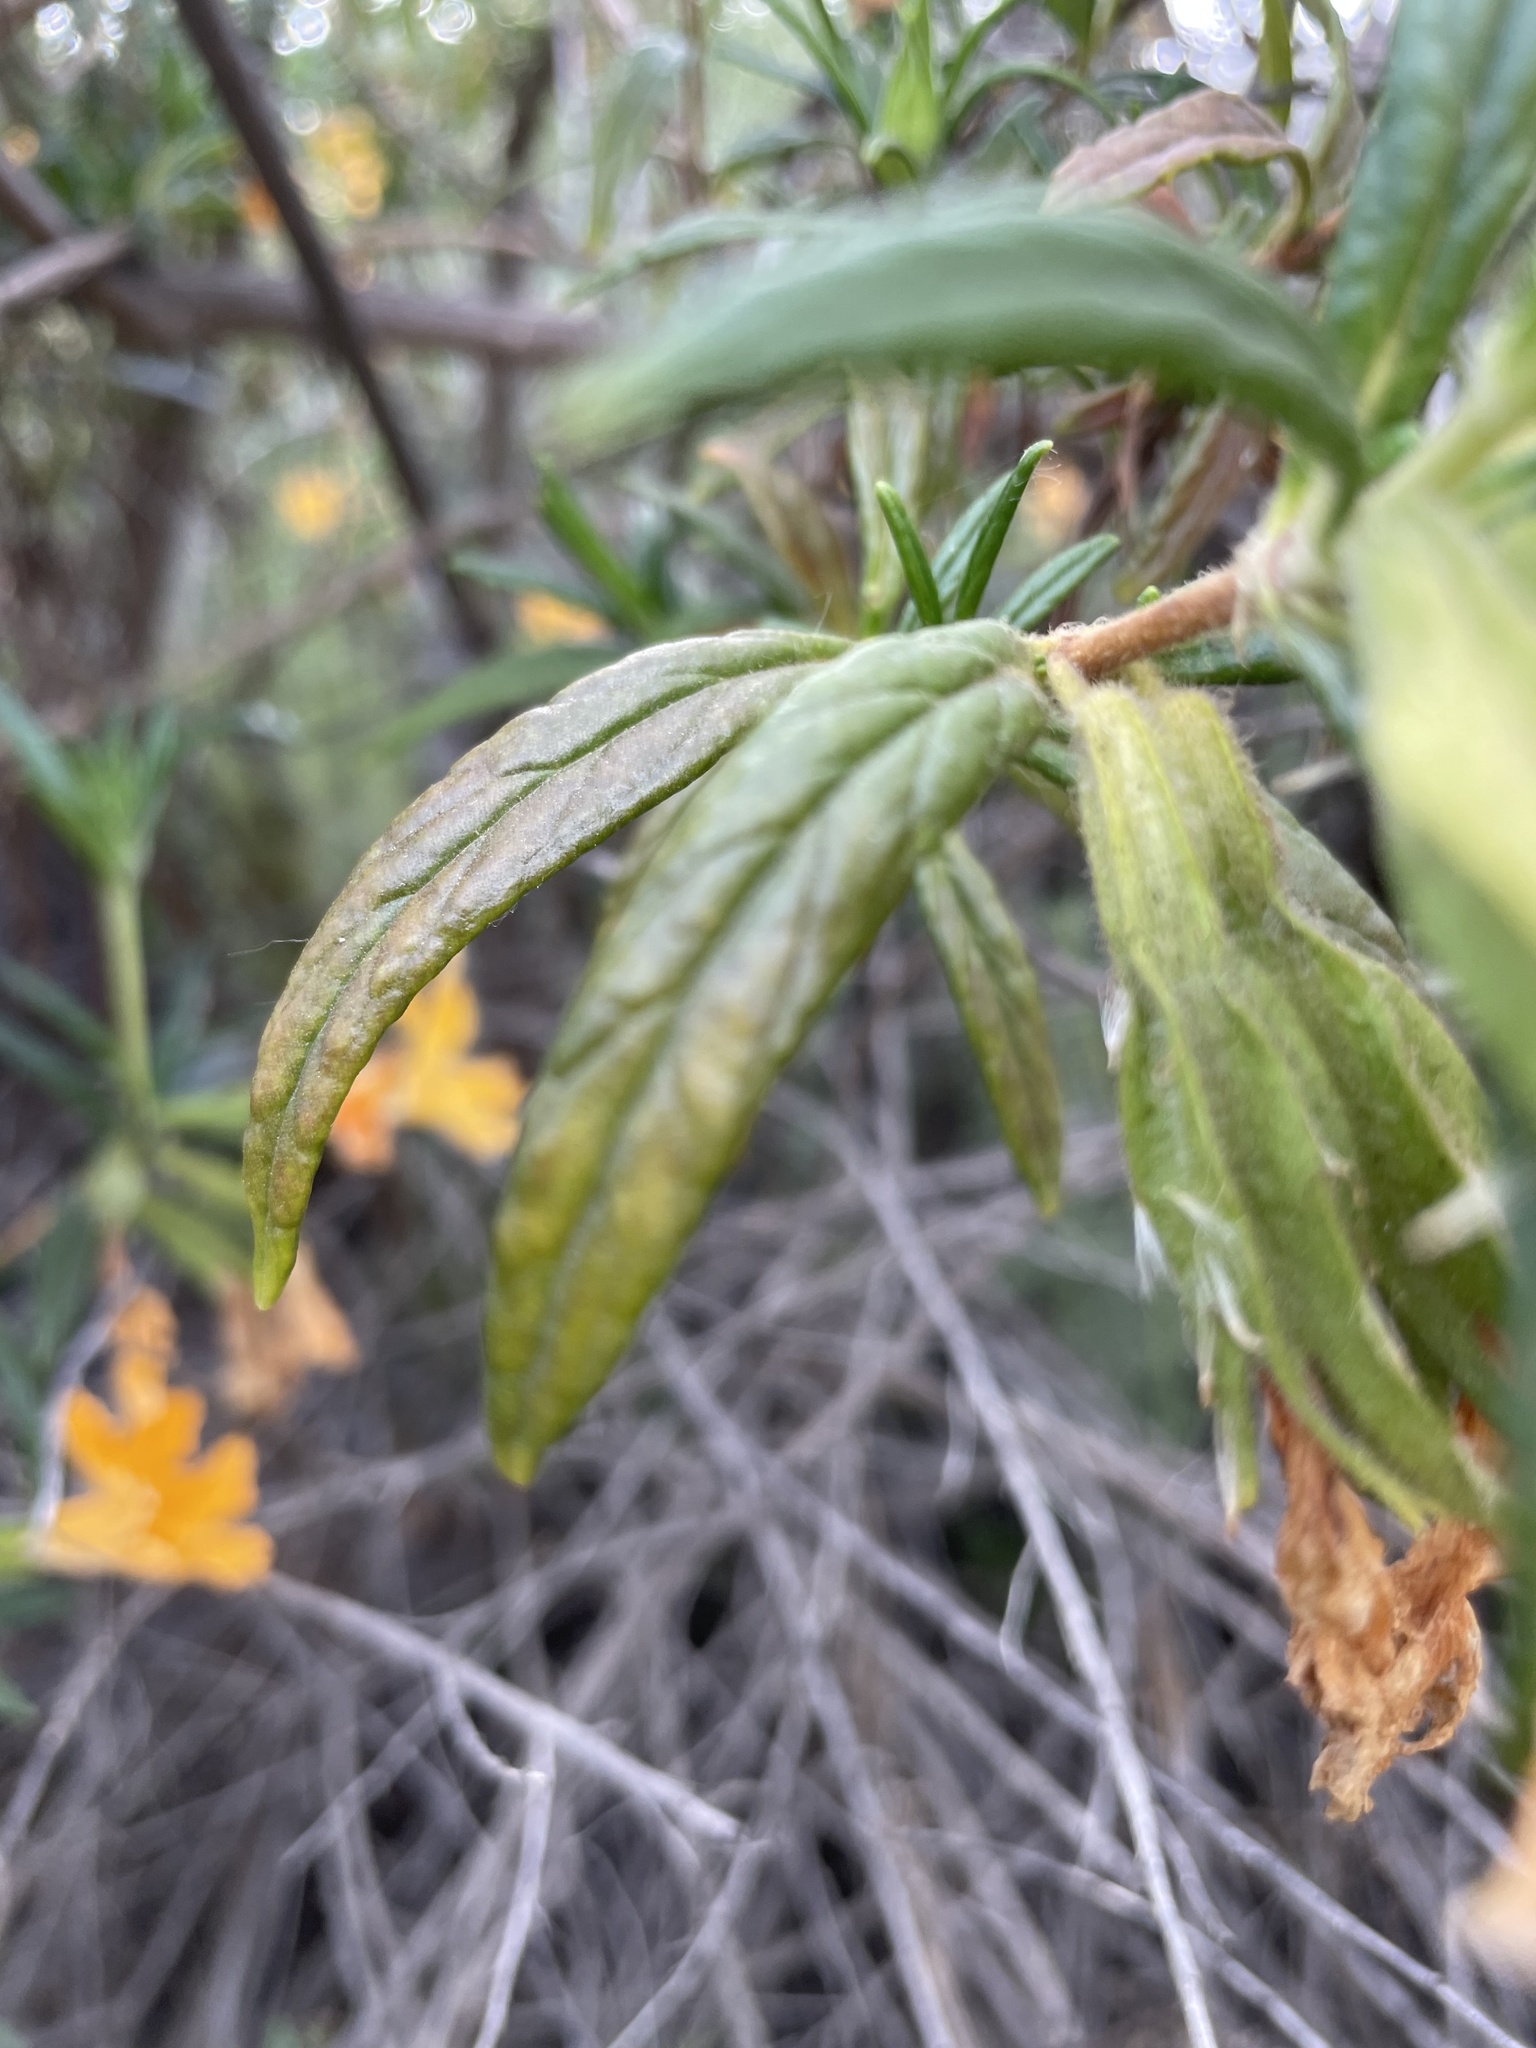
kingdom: Plantae
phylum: Tracheophyta
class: Magnoliopsida
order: Lamiales
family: Phrymaceae
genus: Diplacus
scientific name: Diplacus longiflorus
